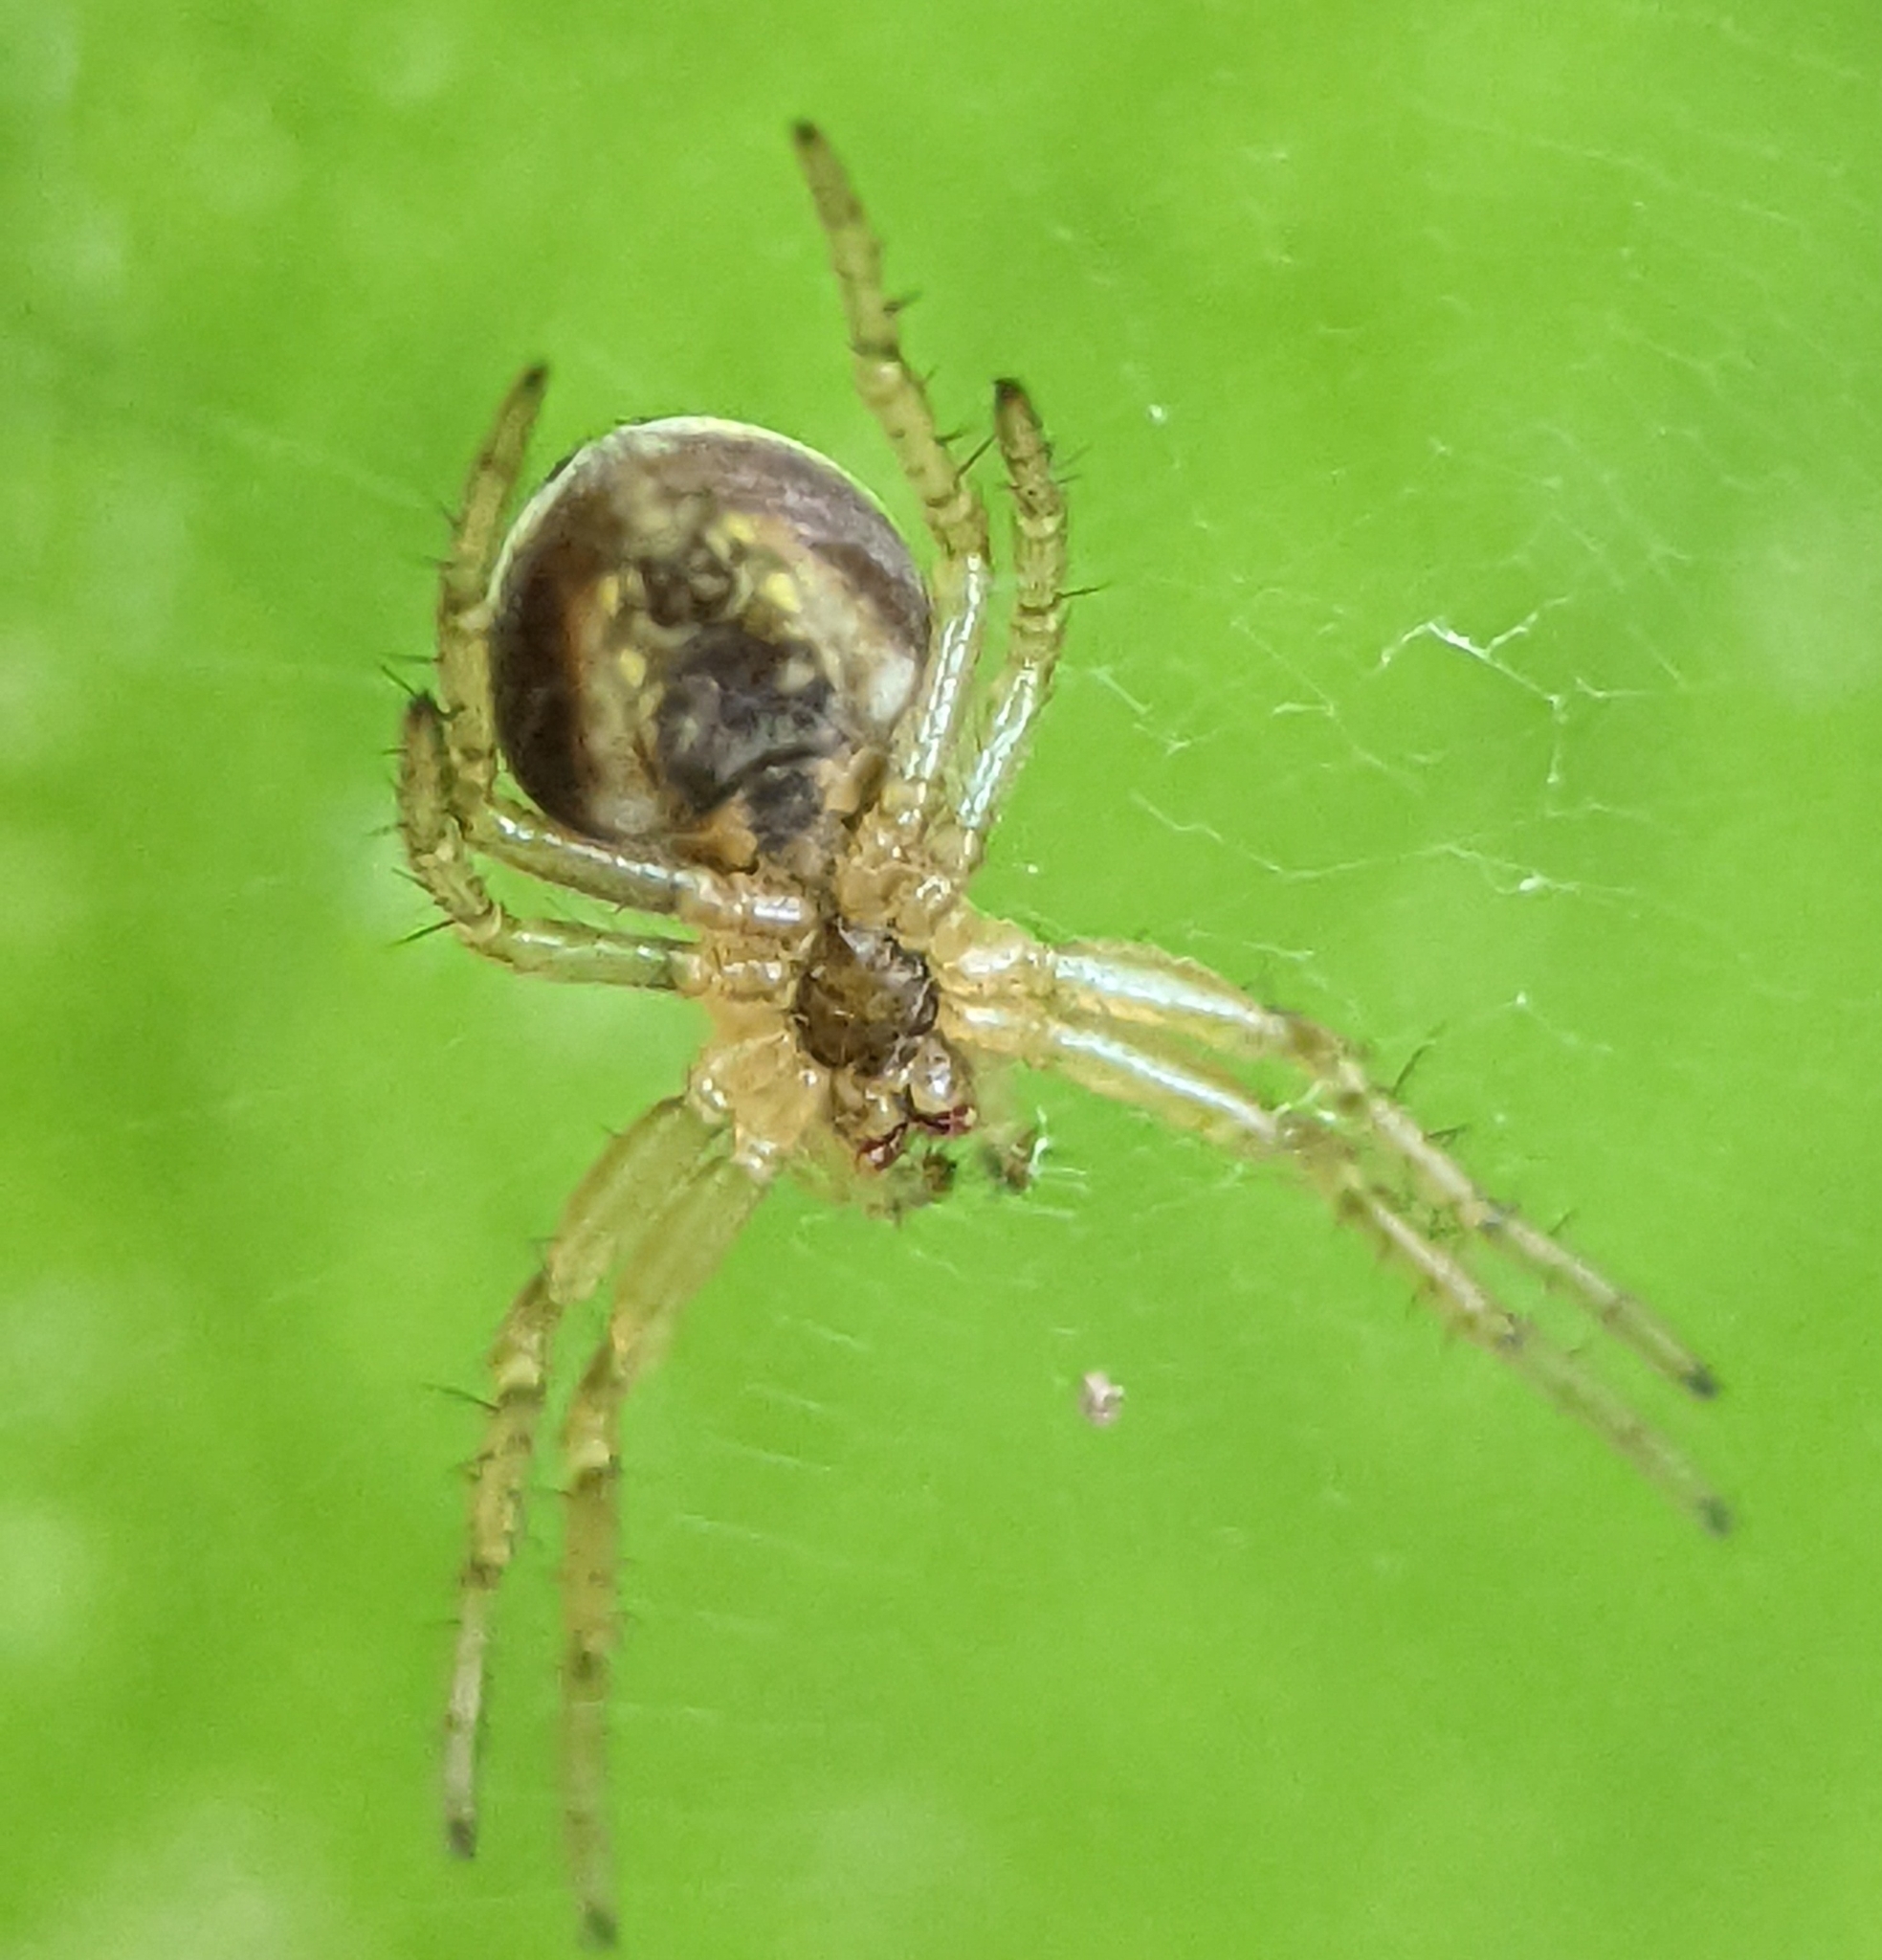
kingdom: Animalia
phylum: Arthropoda
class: Arachnida
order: Araneae
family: Araneidae
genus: Araniella
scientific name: Araniella displicata
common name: Sixspotted orb weaver
